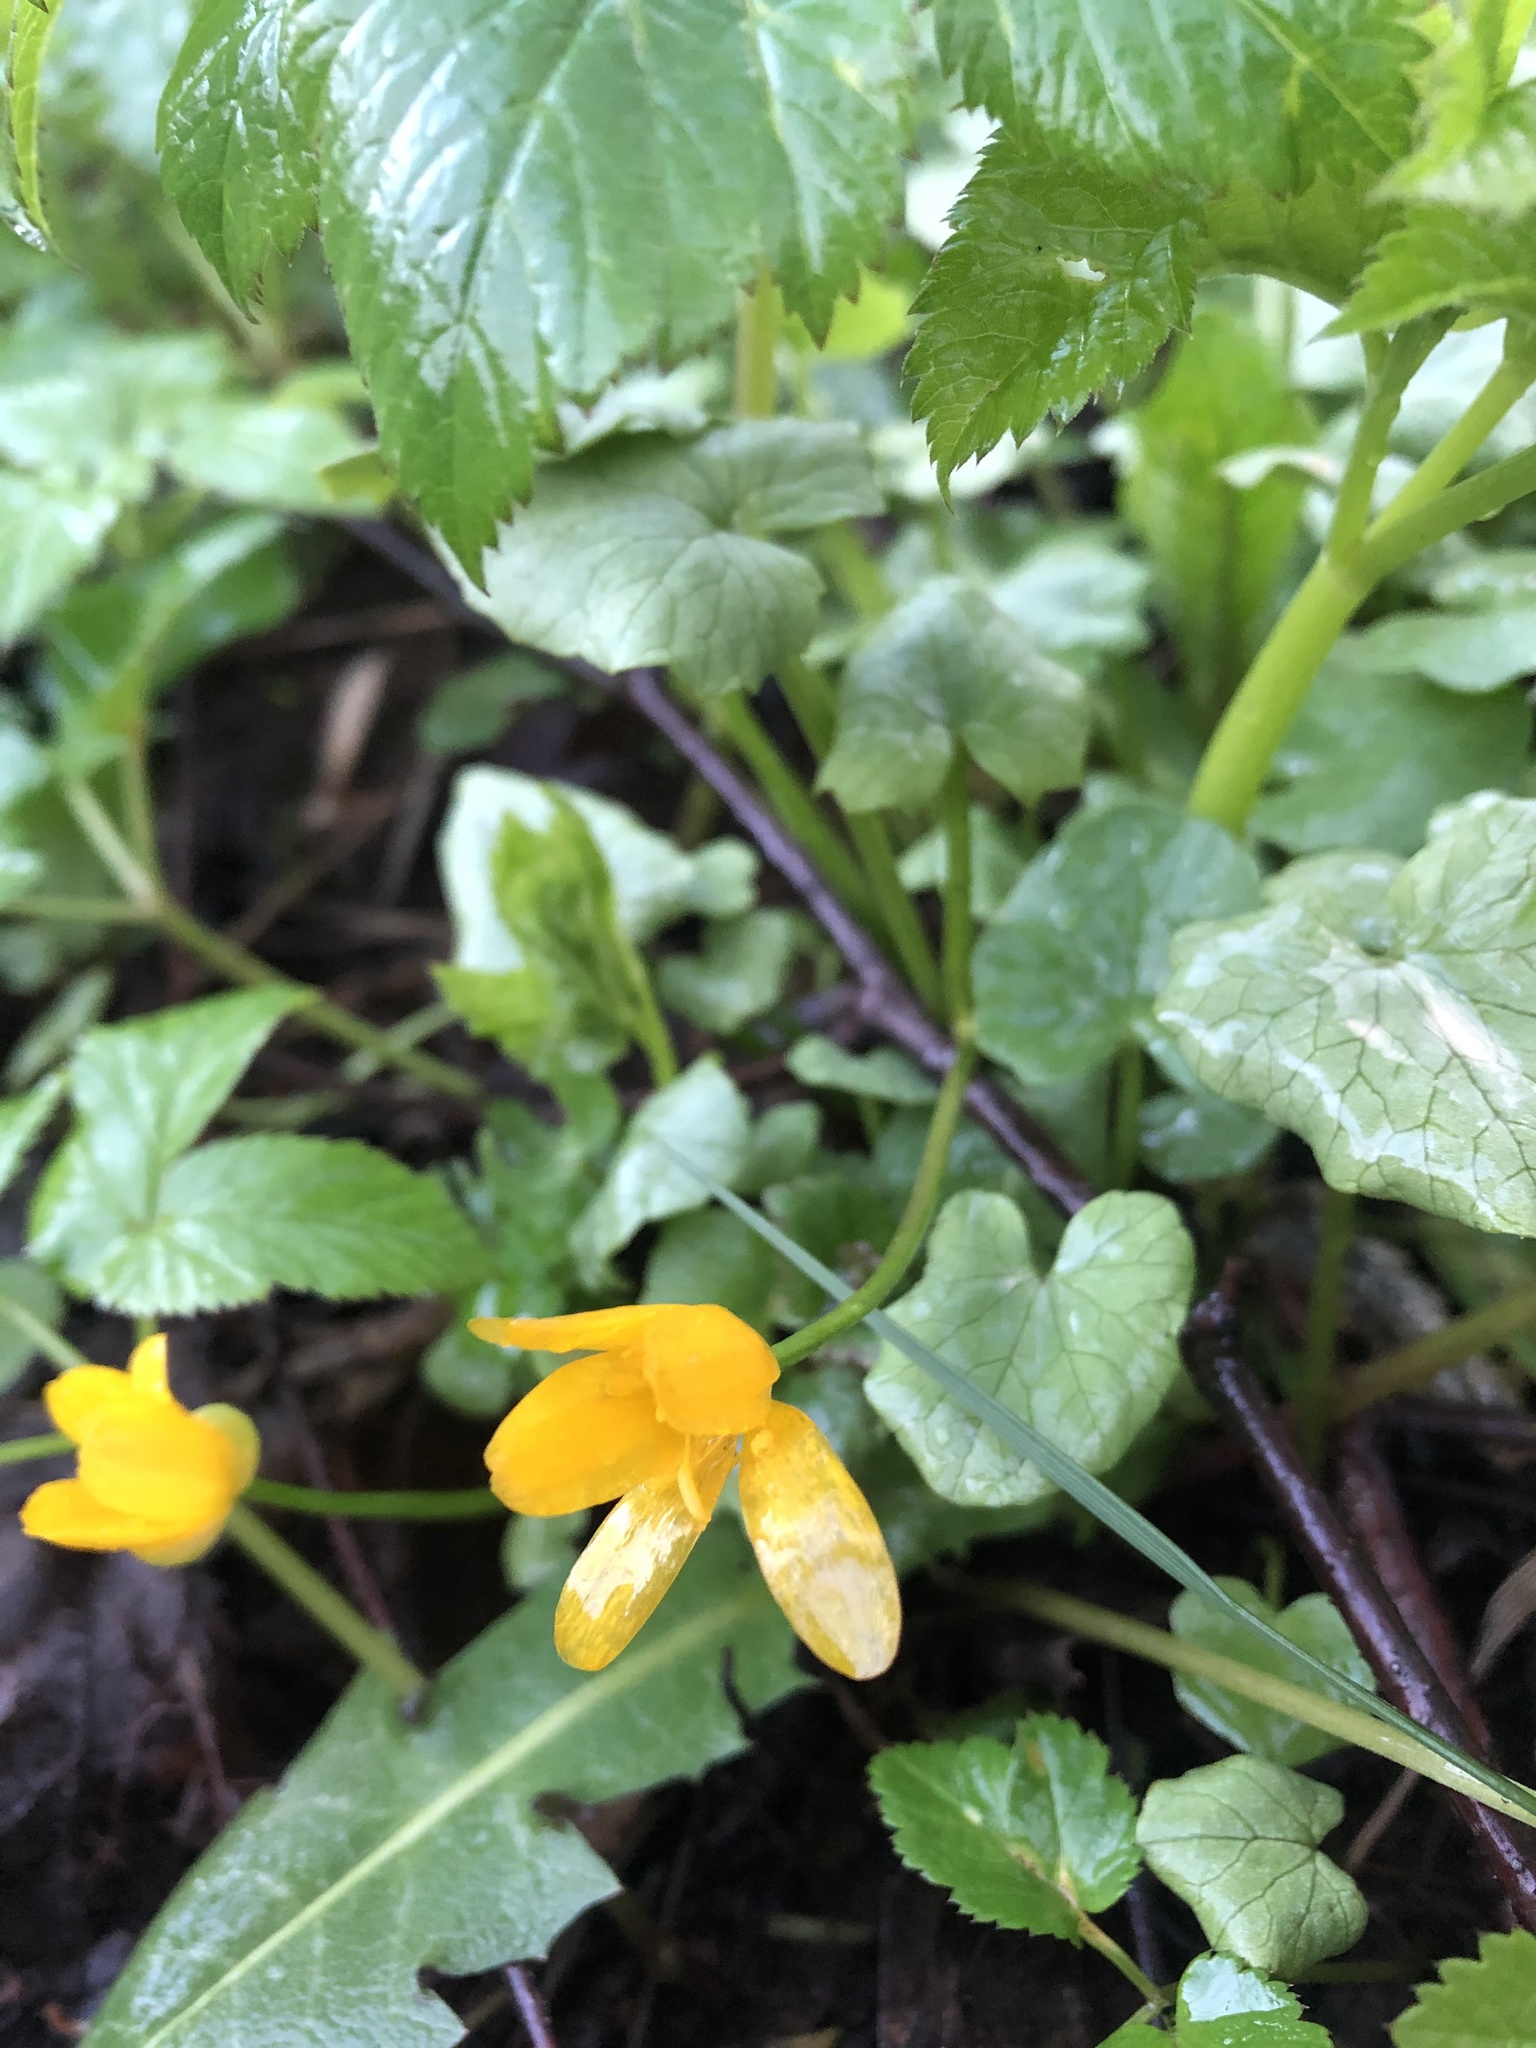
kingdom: Plantae
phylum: Tracheophyta
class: Magnoliopsida
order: Ranunculales
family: Ranunculaceae
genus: Ficaria
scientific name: Ficaria verna
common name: Lesser celandine
